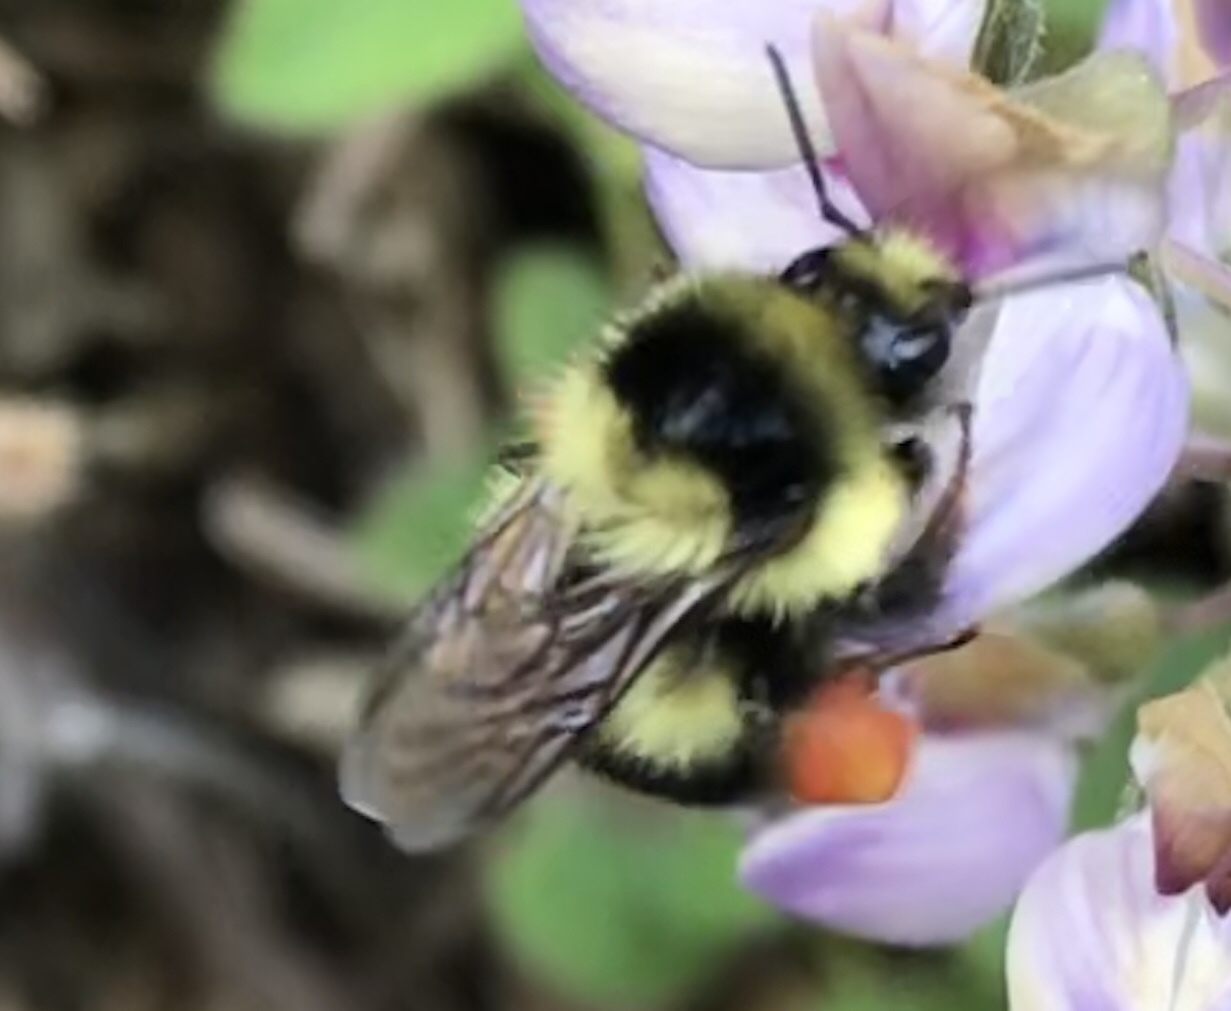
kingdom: Animalia
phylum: Arthropoda
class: Insecta
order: Hymenoptera
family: Apidae
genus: Bombus
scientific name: Bombus melanopygus
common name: Black tail bumble bee
